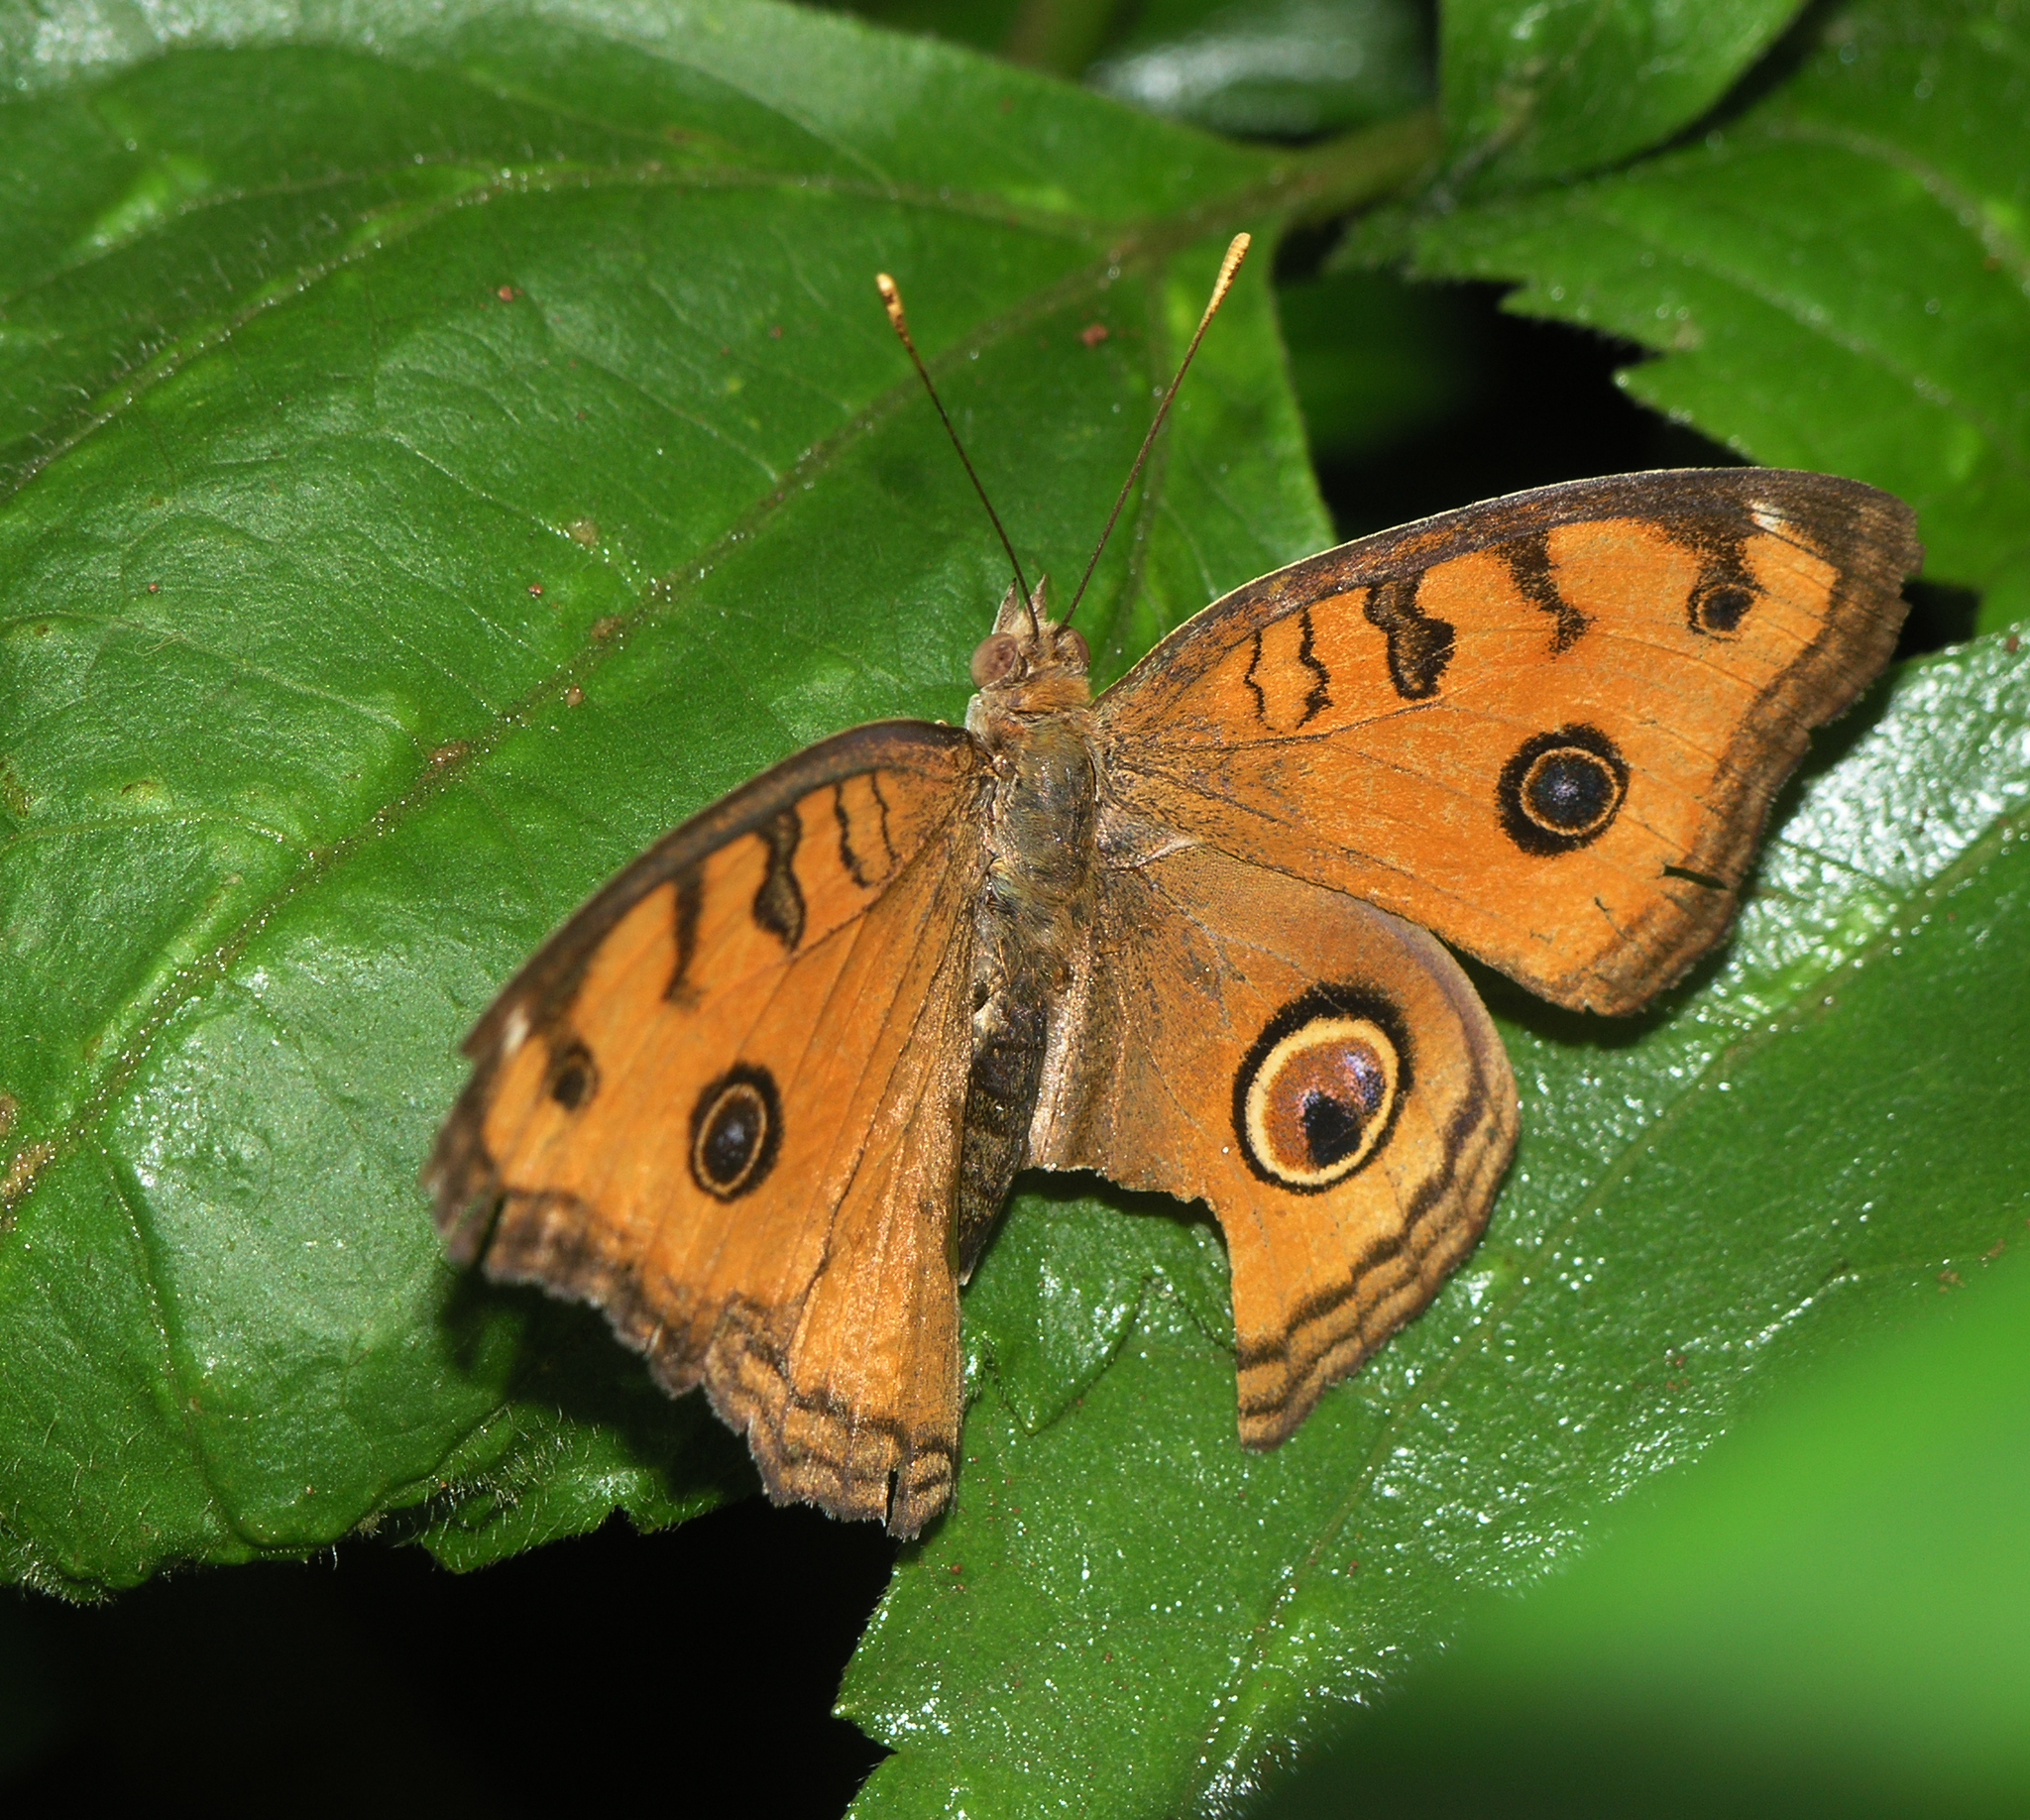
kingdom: Animalia
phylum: Arthropoda
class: Insecta
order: Lepidoptera
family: Nymphalidae
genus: Junonia
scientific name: Junonia almana
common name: Peacock pansy
